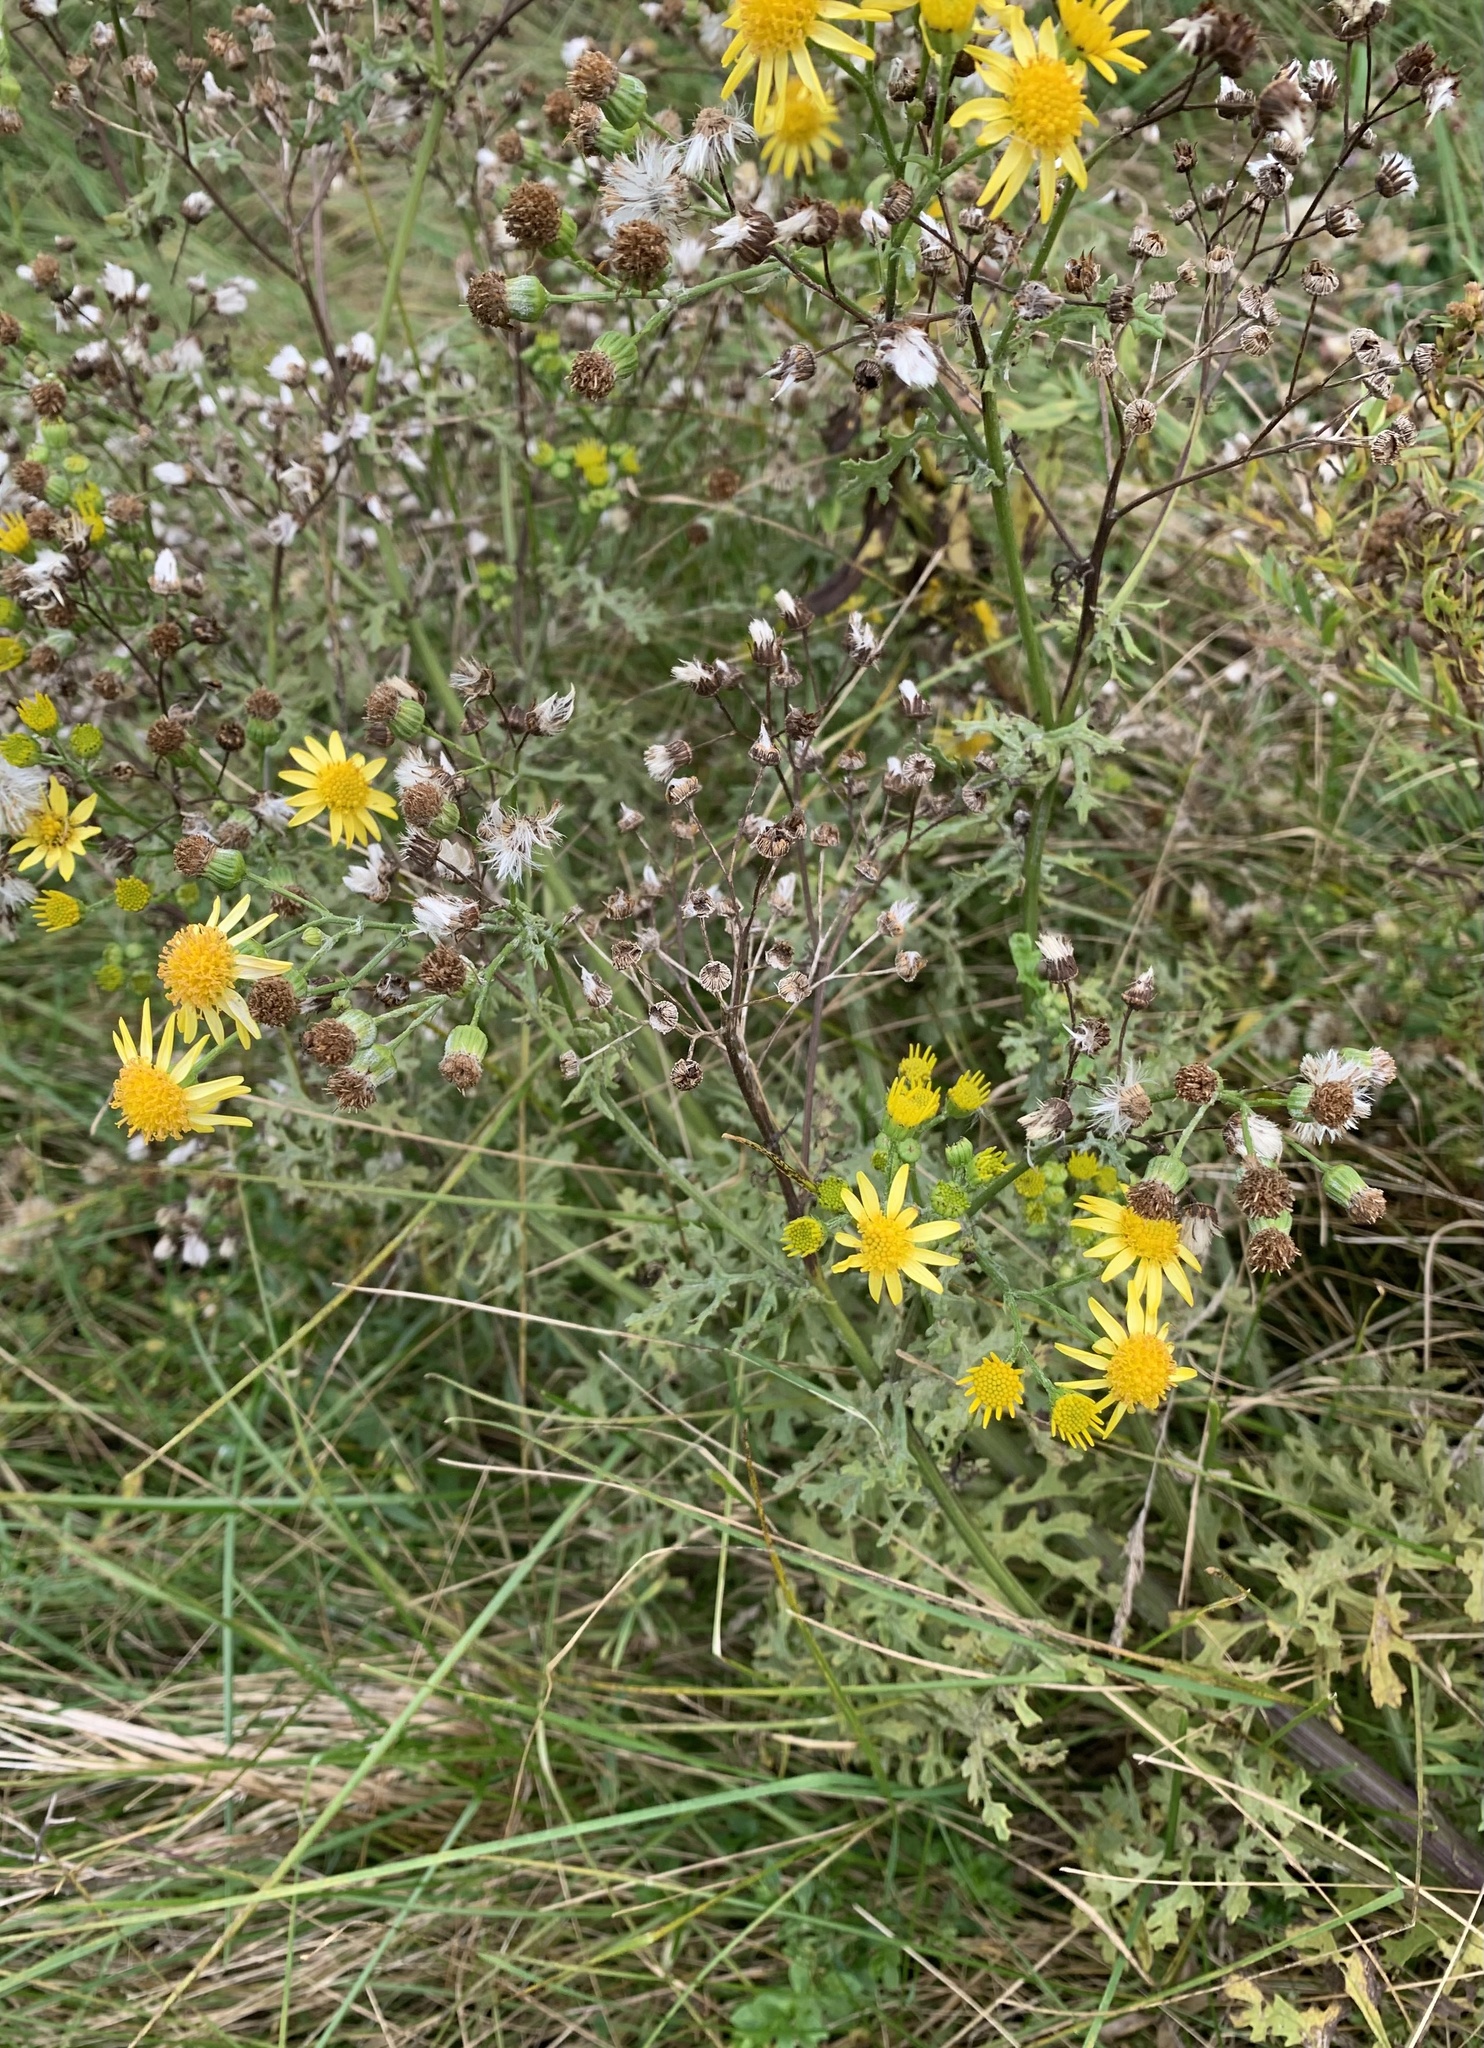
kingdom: Plantae
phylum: Tracheophyta
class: Magnoliopsida
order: Asterales
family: Asteraceae
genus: Jacobaea
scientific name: Jacobaea vulgaris
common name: Stinking willie
